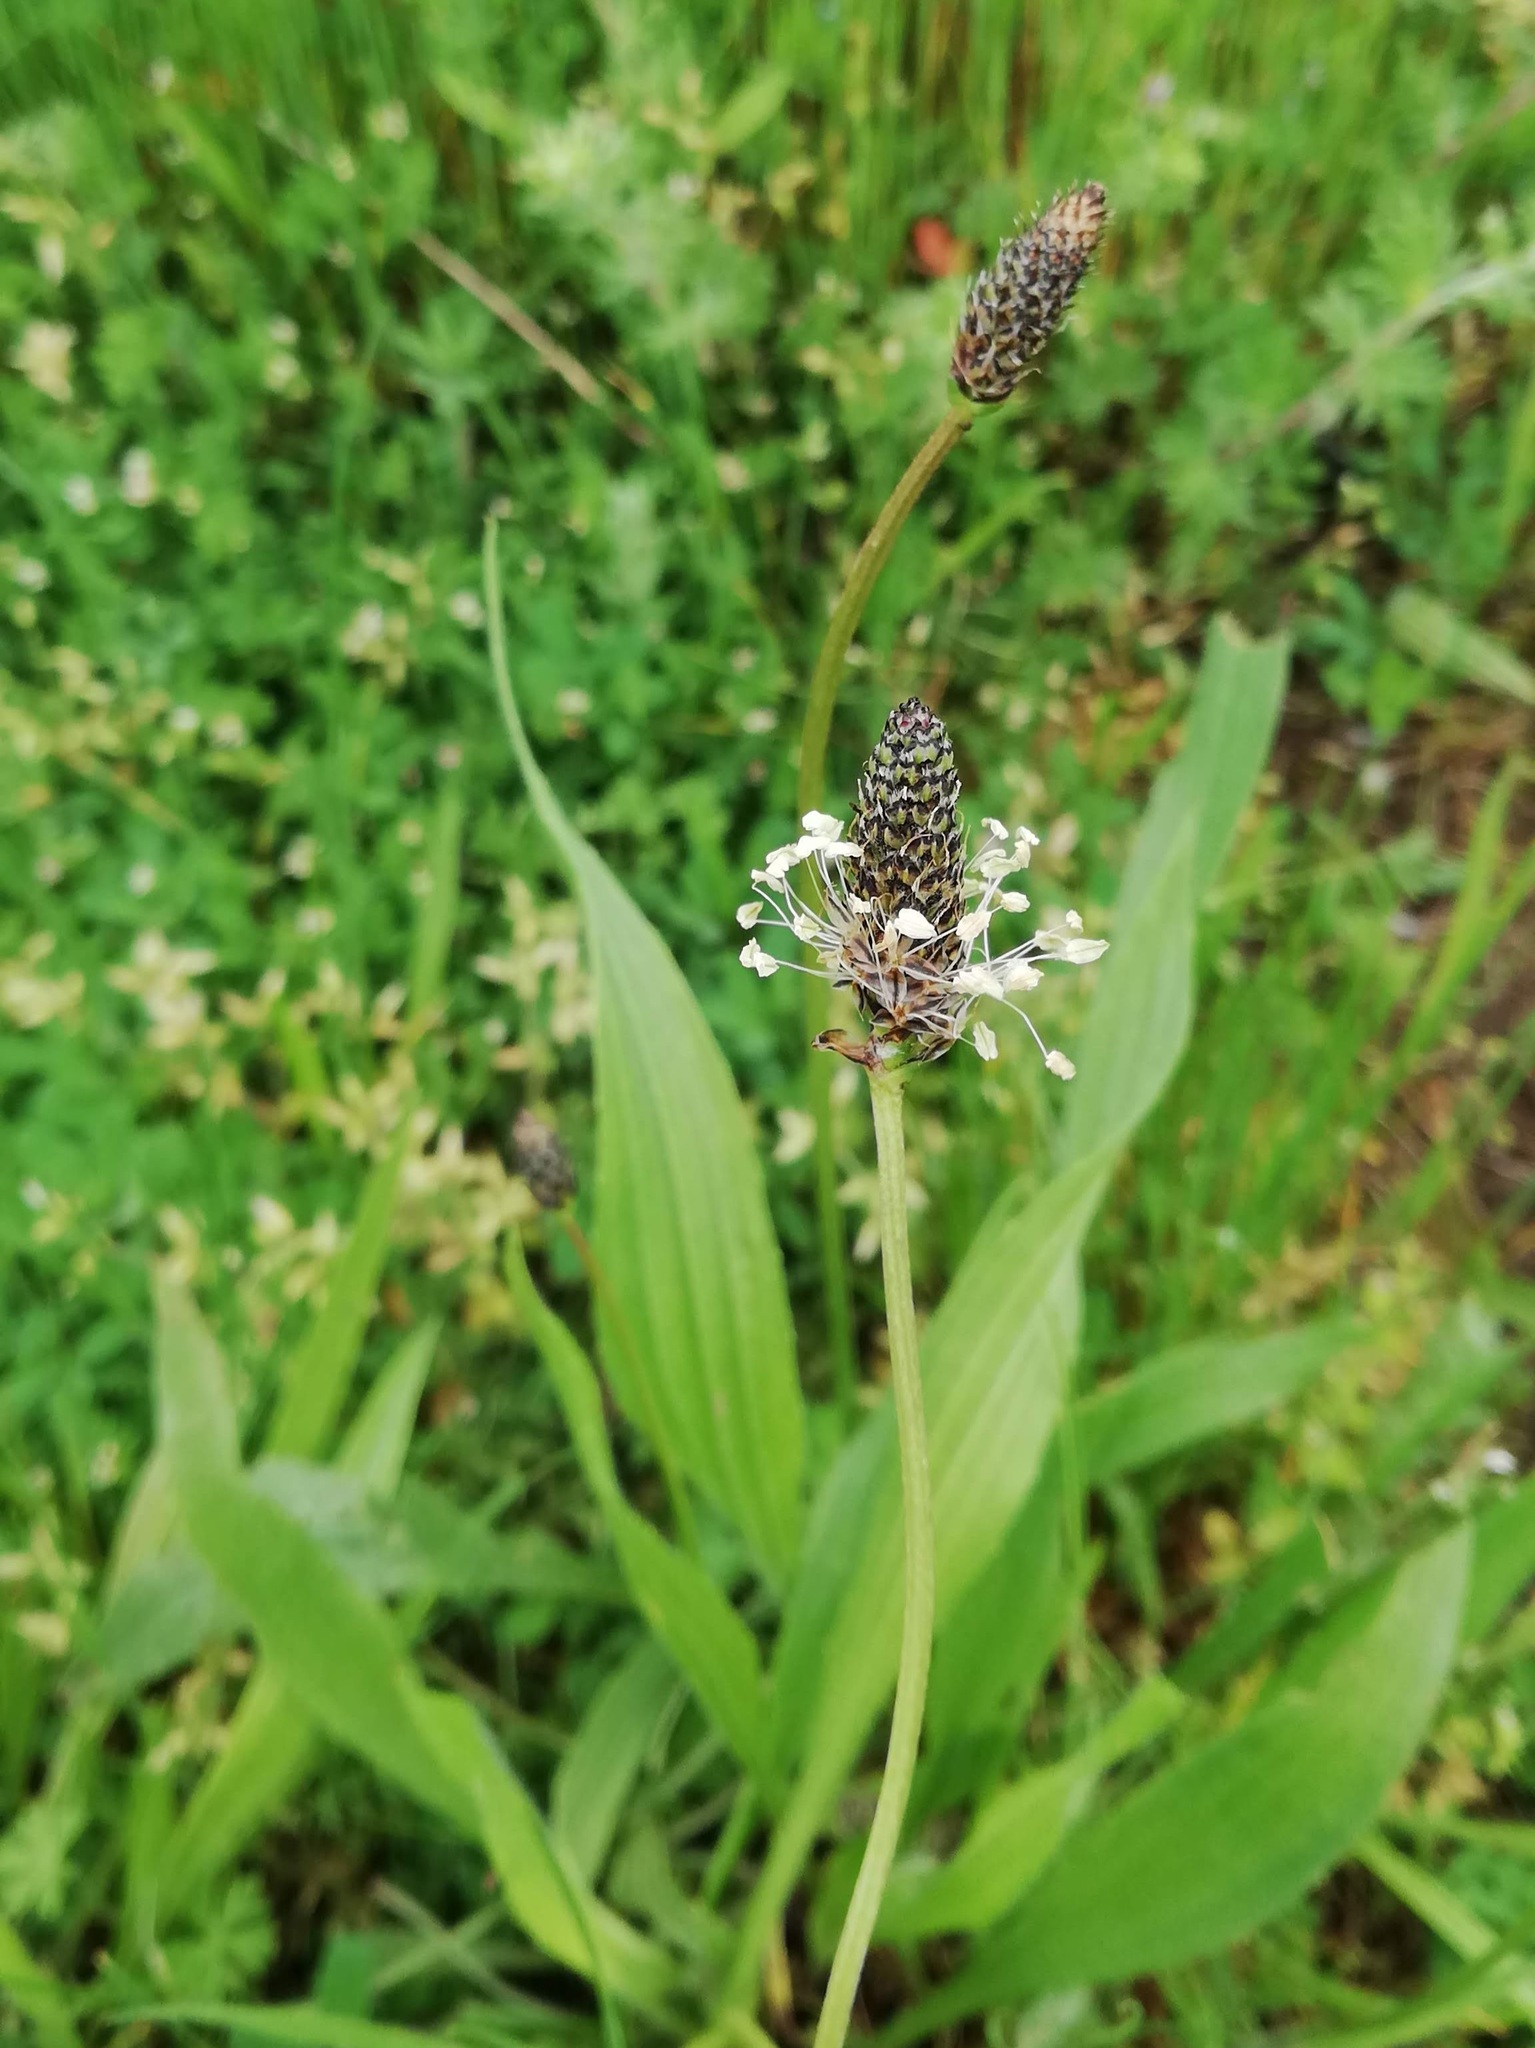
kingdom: Plantae
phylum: Tracheophyta
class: Magnoliopsida
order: Lamiales
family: Plantaginaceae
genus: Plantago
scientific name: Plantago lanceolata
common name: Ribwort plantain
